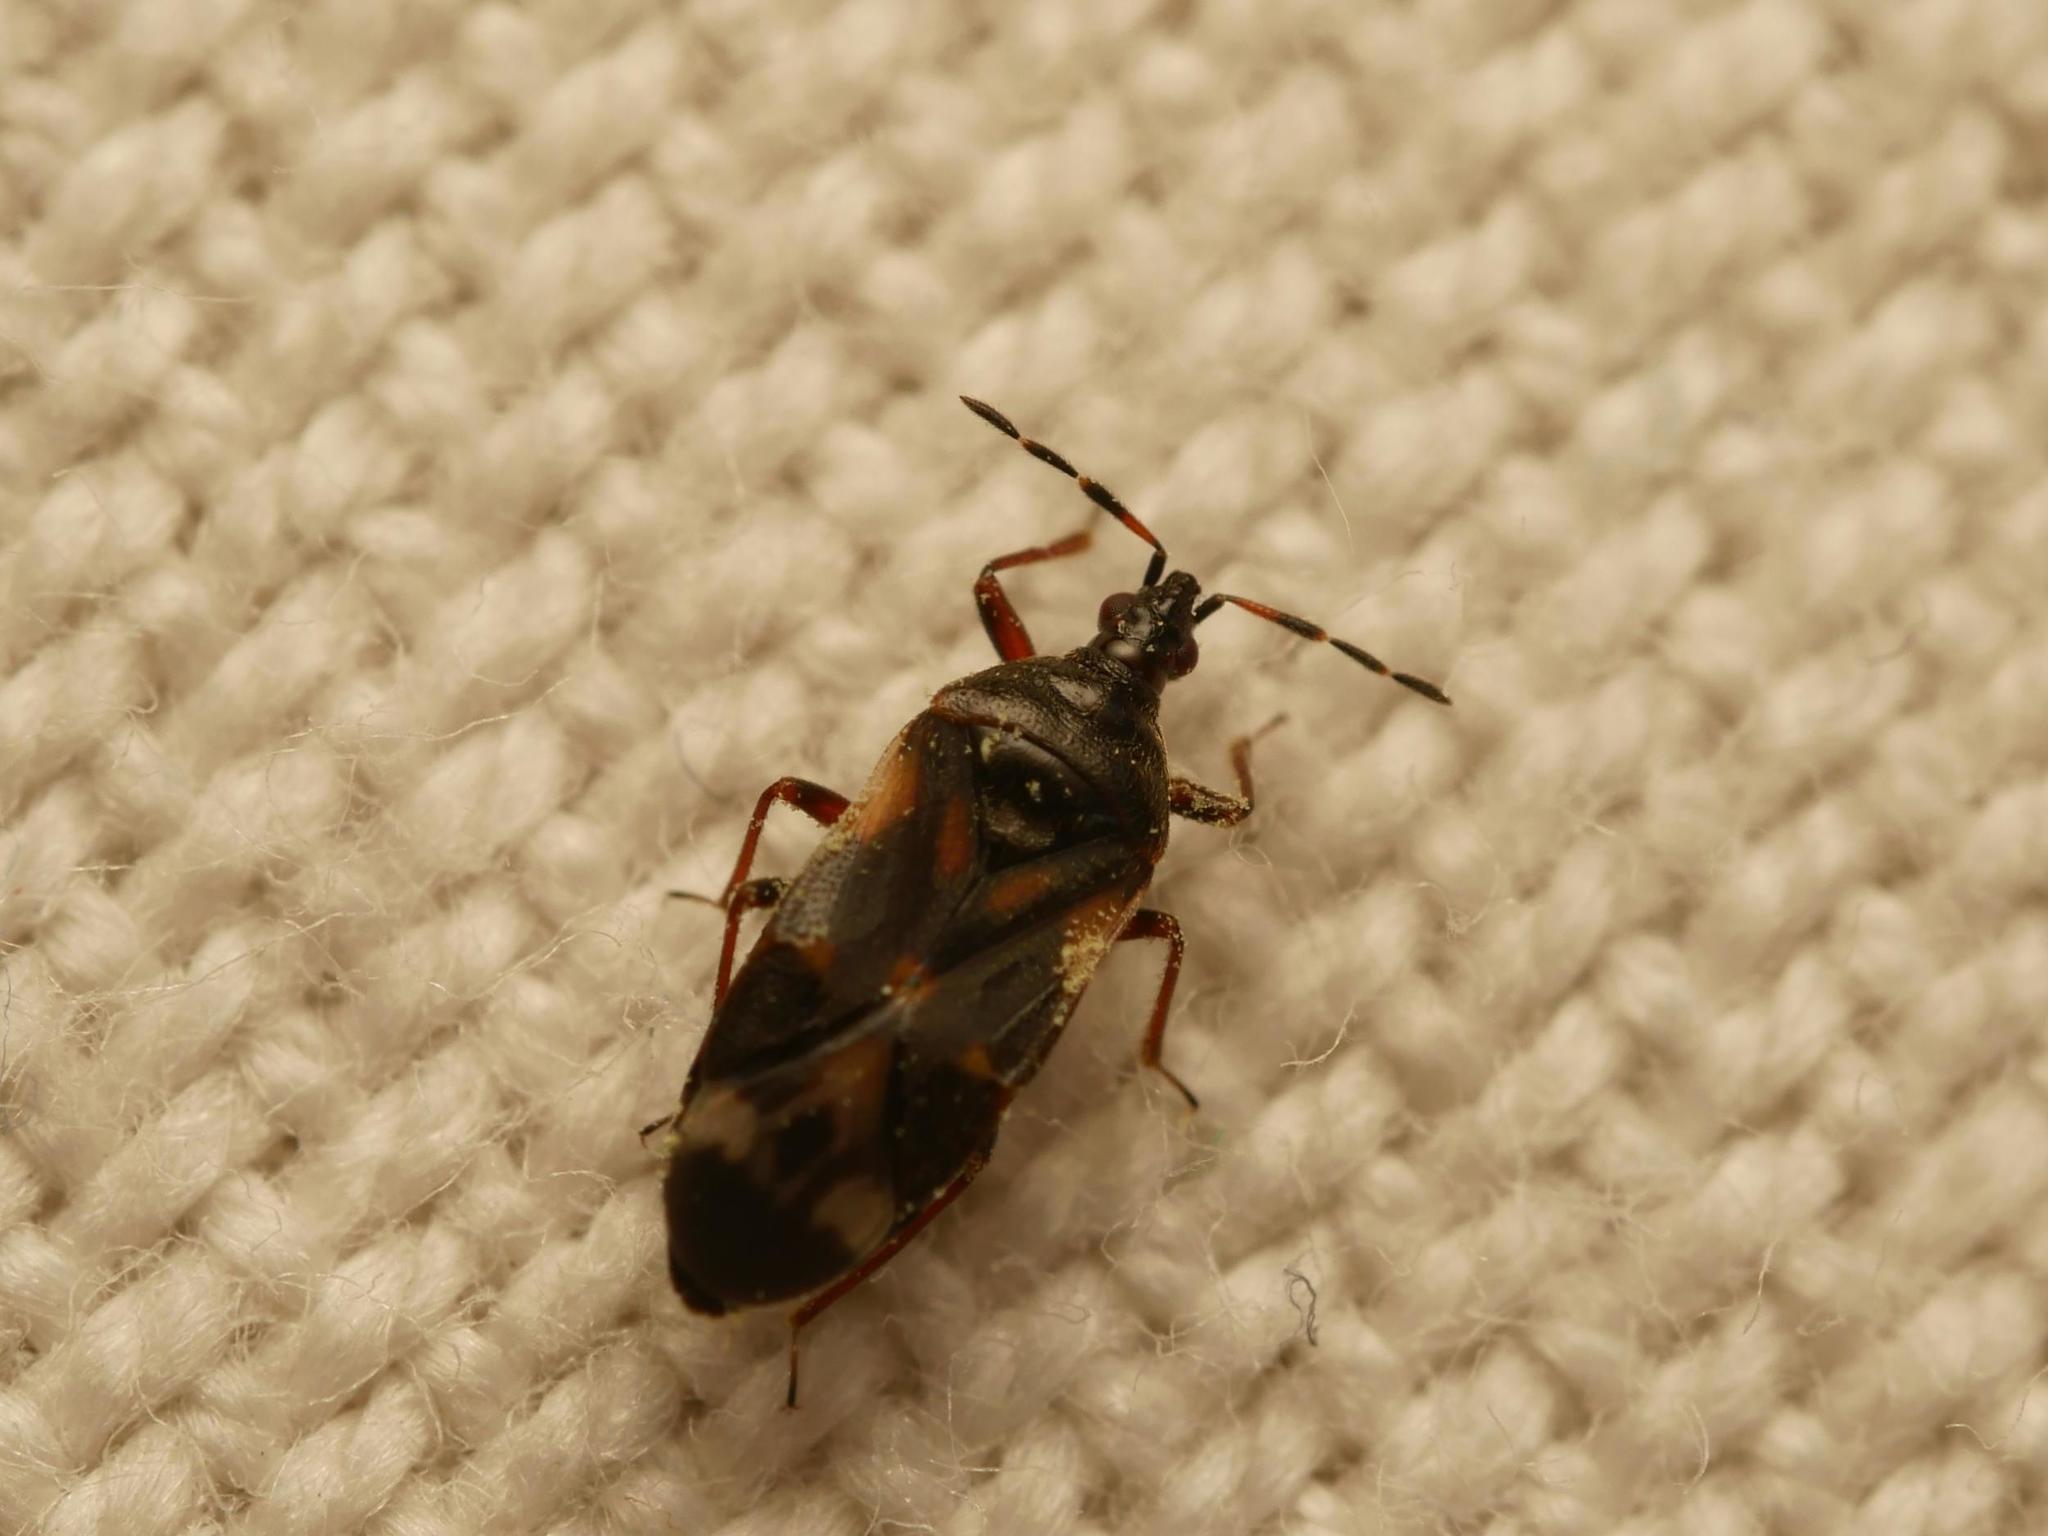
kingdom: Animalia
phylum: Arthropoda
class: Insecta
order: Hemiptera
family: Anthocoridae
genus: Anthocoris
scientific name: Anthocoris nemoralis
